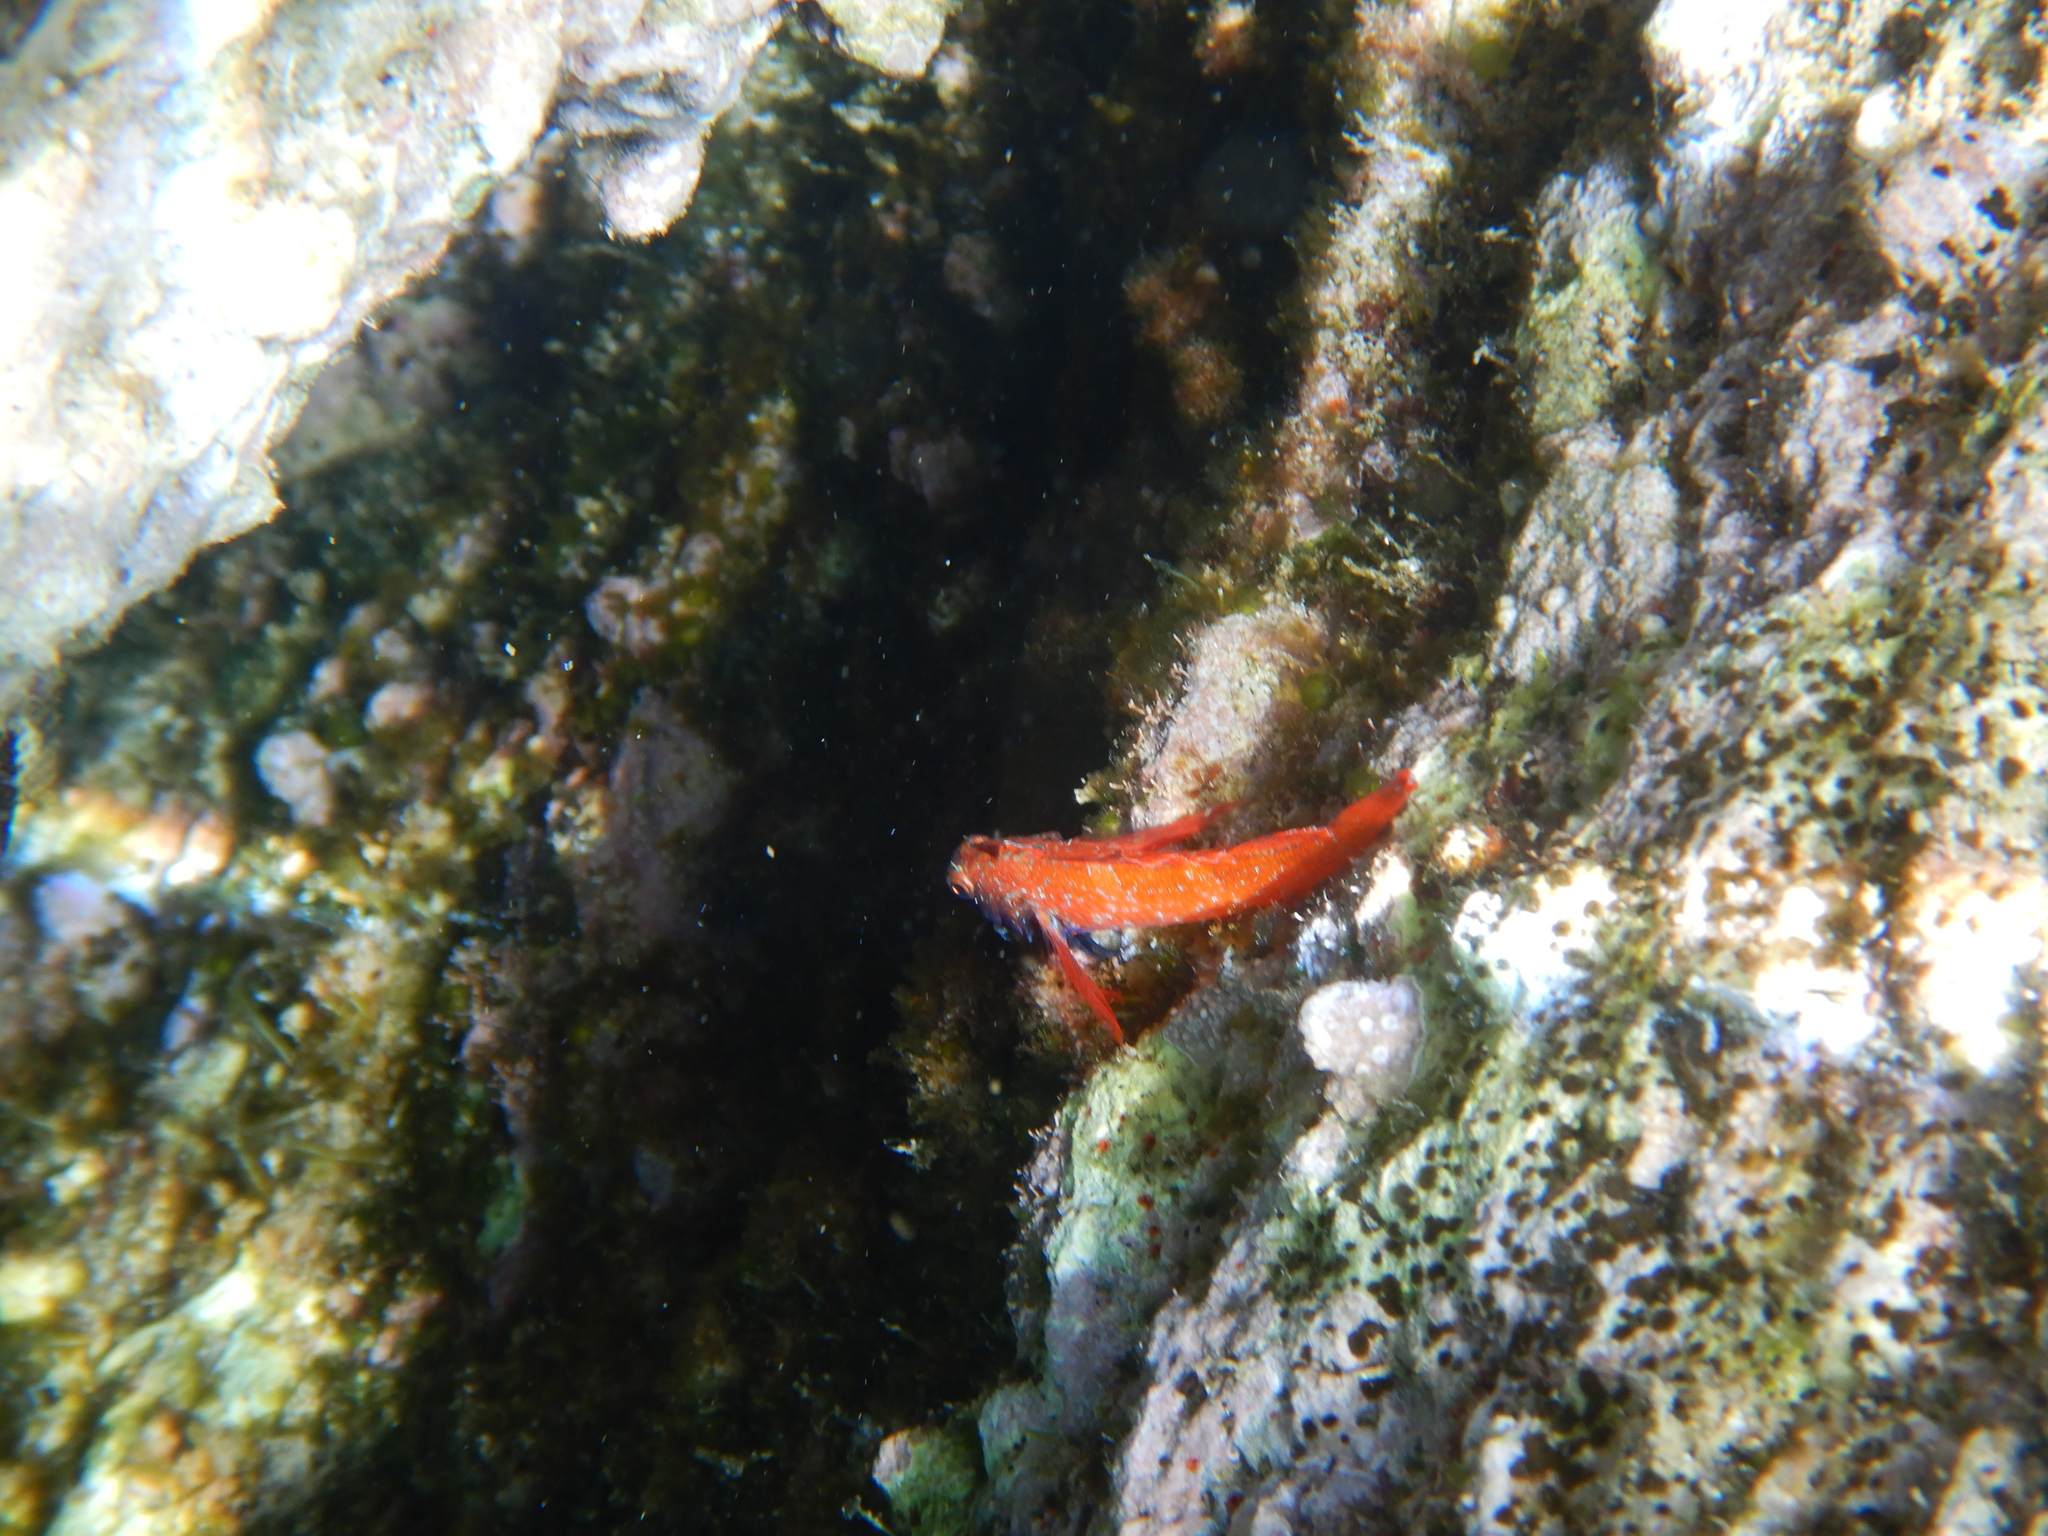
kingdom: Animalia
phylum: Chordata
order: Perciformes
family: Tripterygiidae
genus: Tripterygion
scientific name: Tripterygion melanurum
